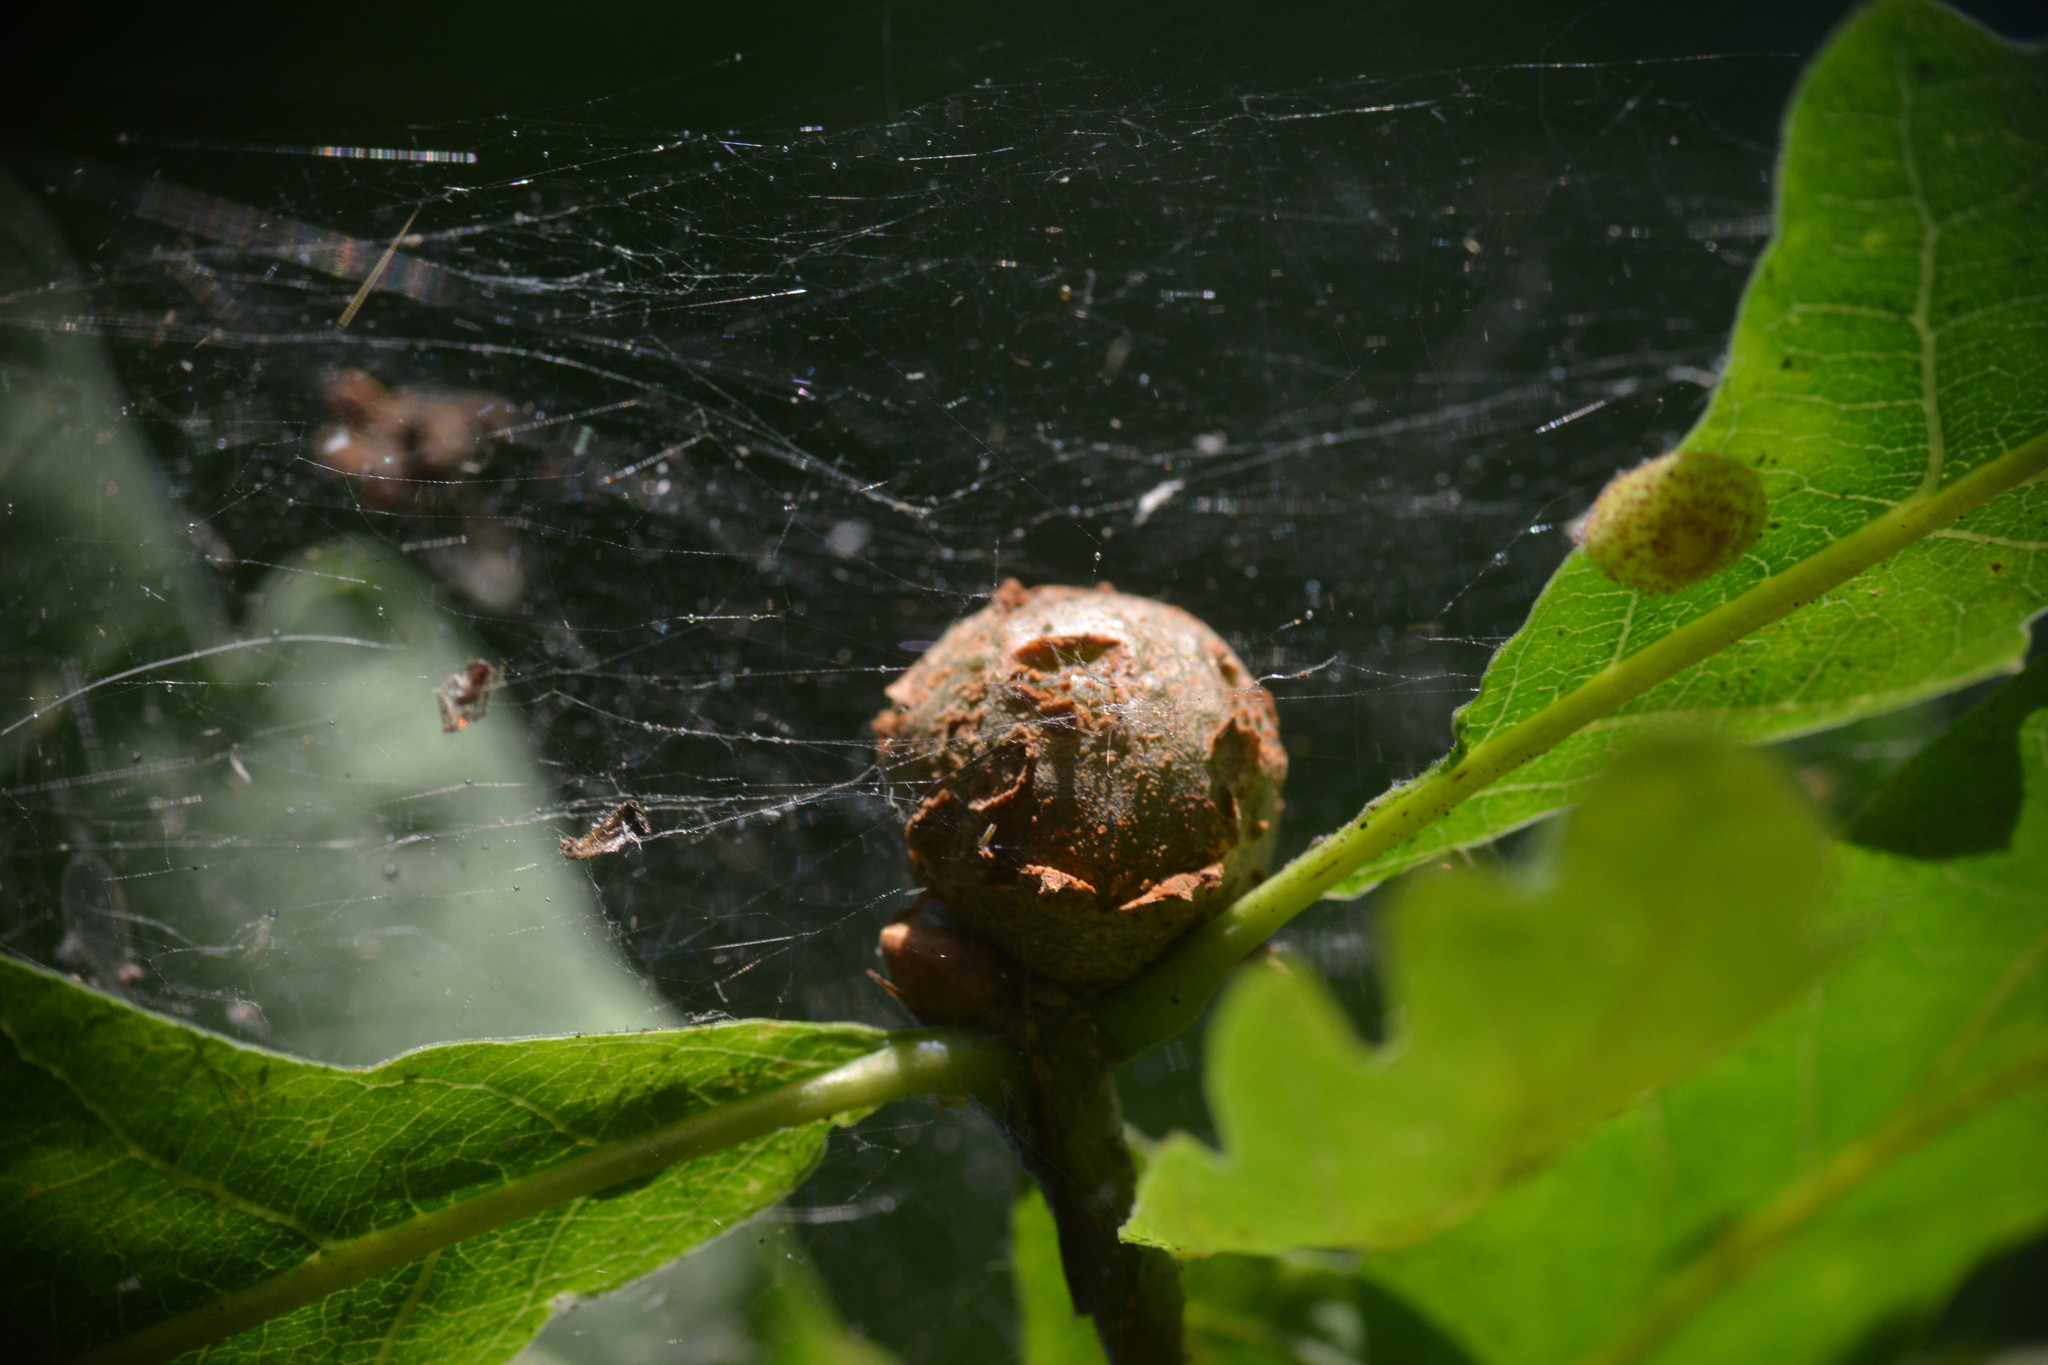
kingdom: Animalia
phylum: Arthropoda
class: Insecta
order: Hymenoptera
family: Cynipidae
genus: Andricus
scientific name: Andricus lignicolus
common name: Cola-nut gall
